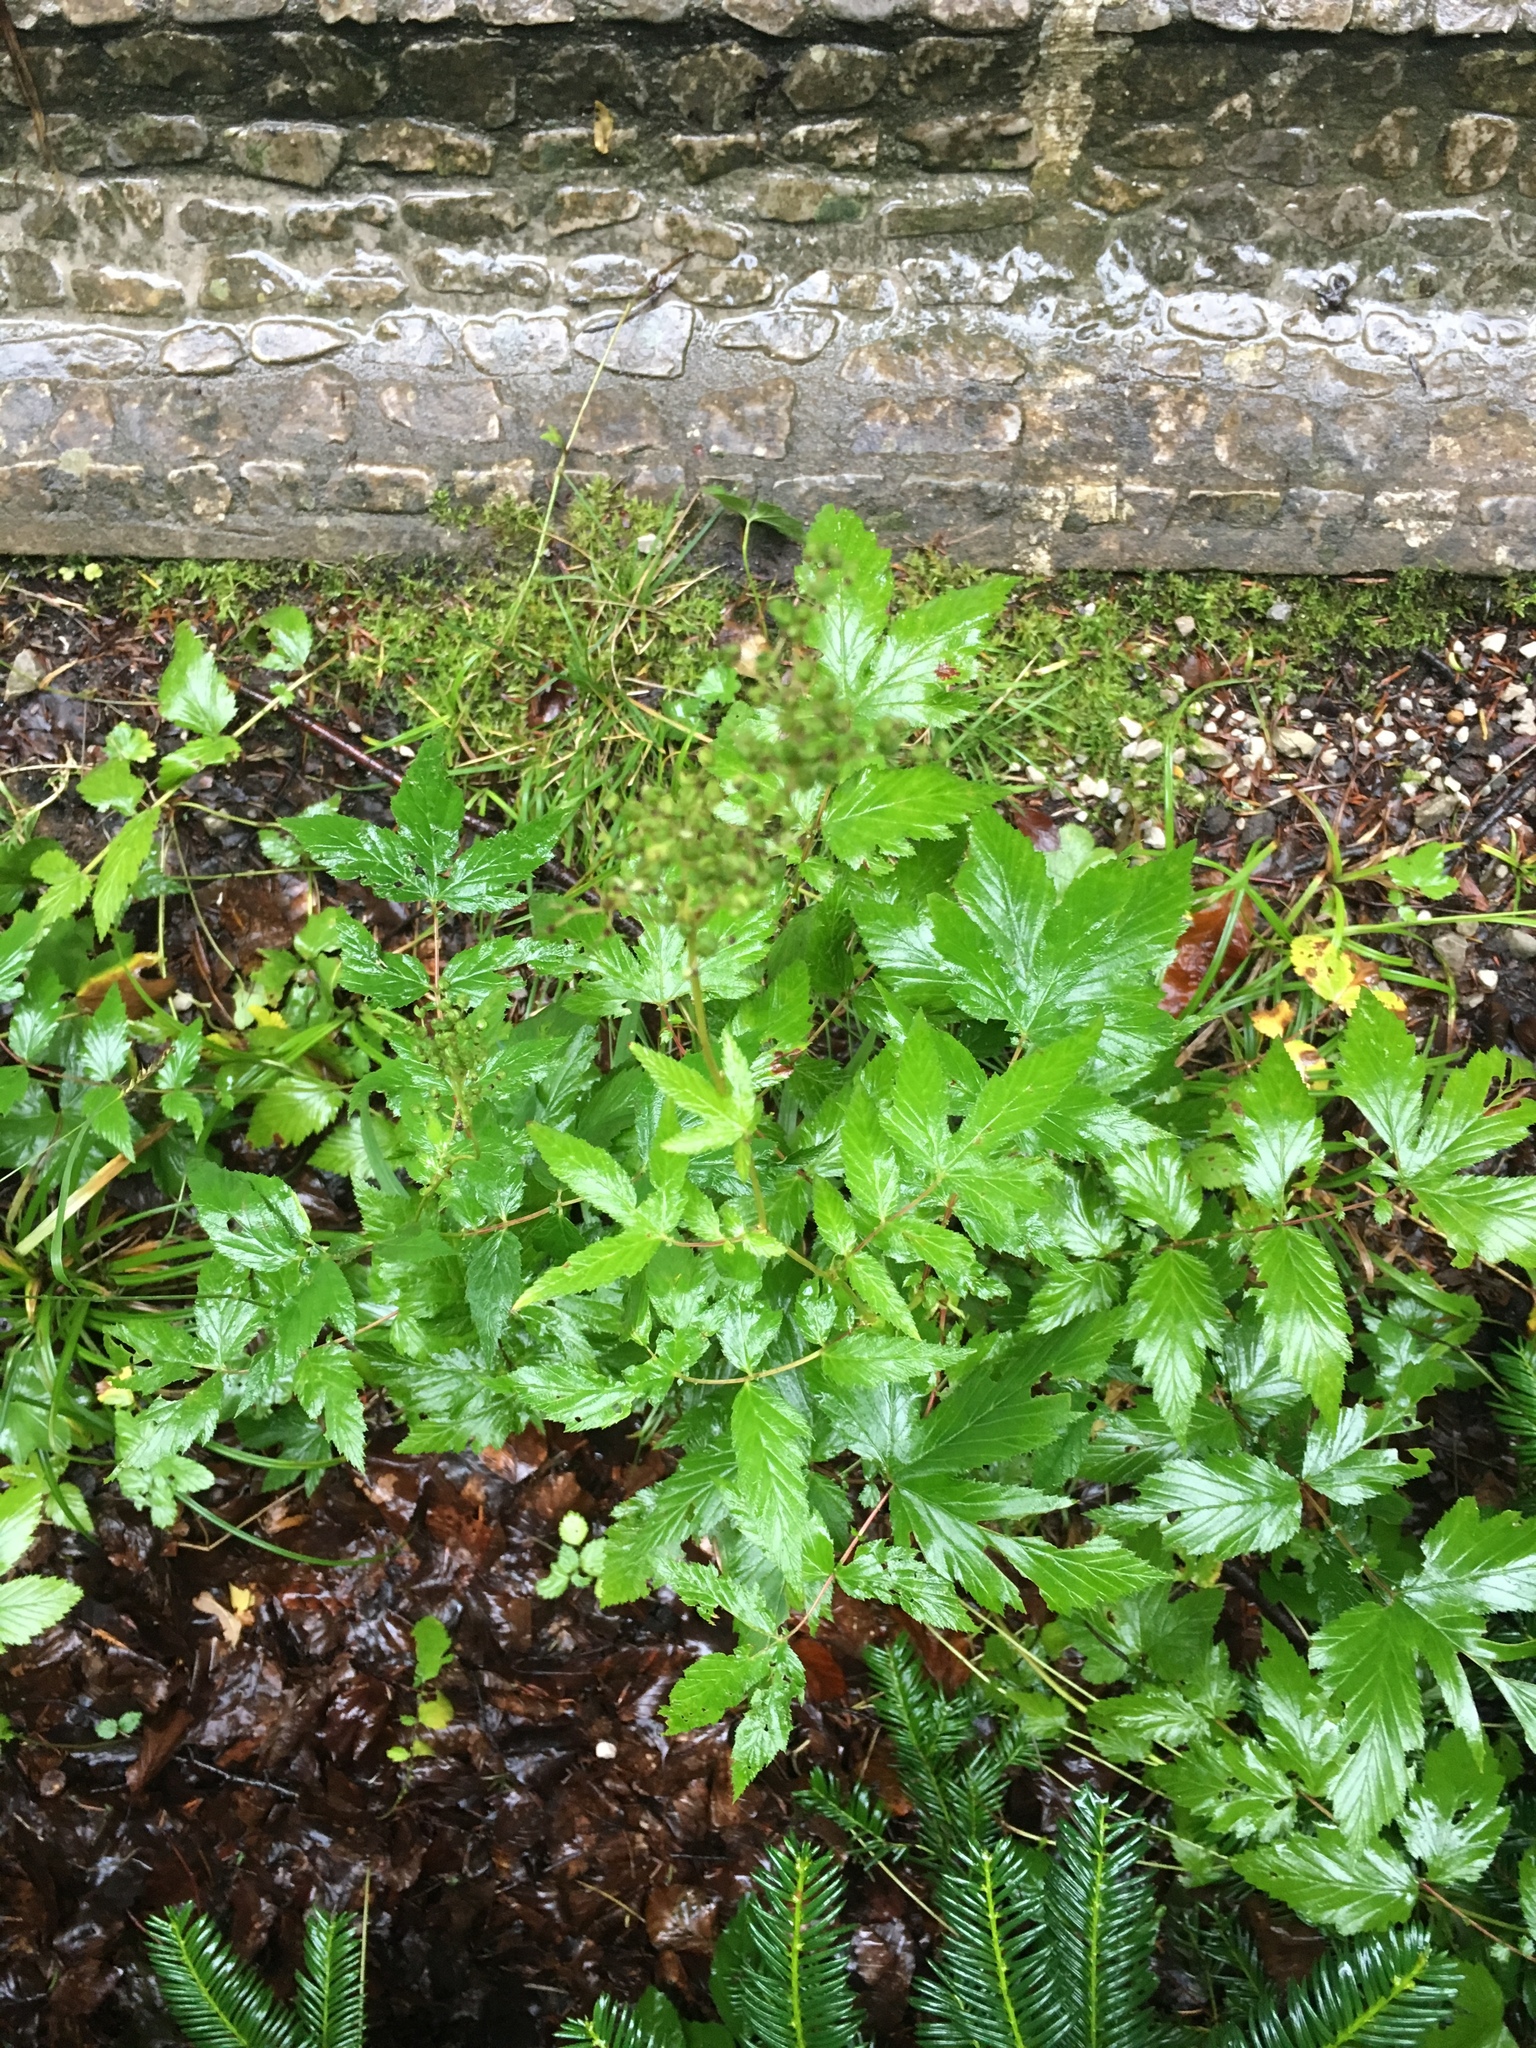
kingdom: Plantae
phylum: Tracheophyta
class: Magnoliopsida
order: Rosales
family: Rosaceae
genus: Filipendula
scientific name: Filipendula ulmaria
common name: Meadowsweet
